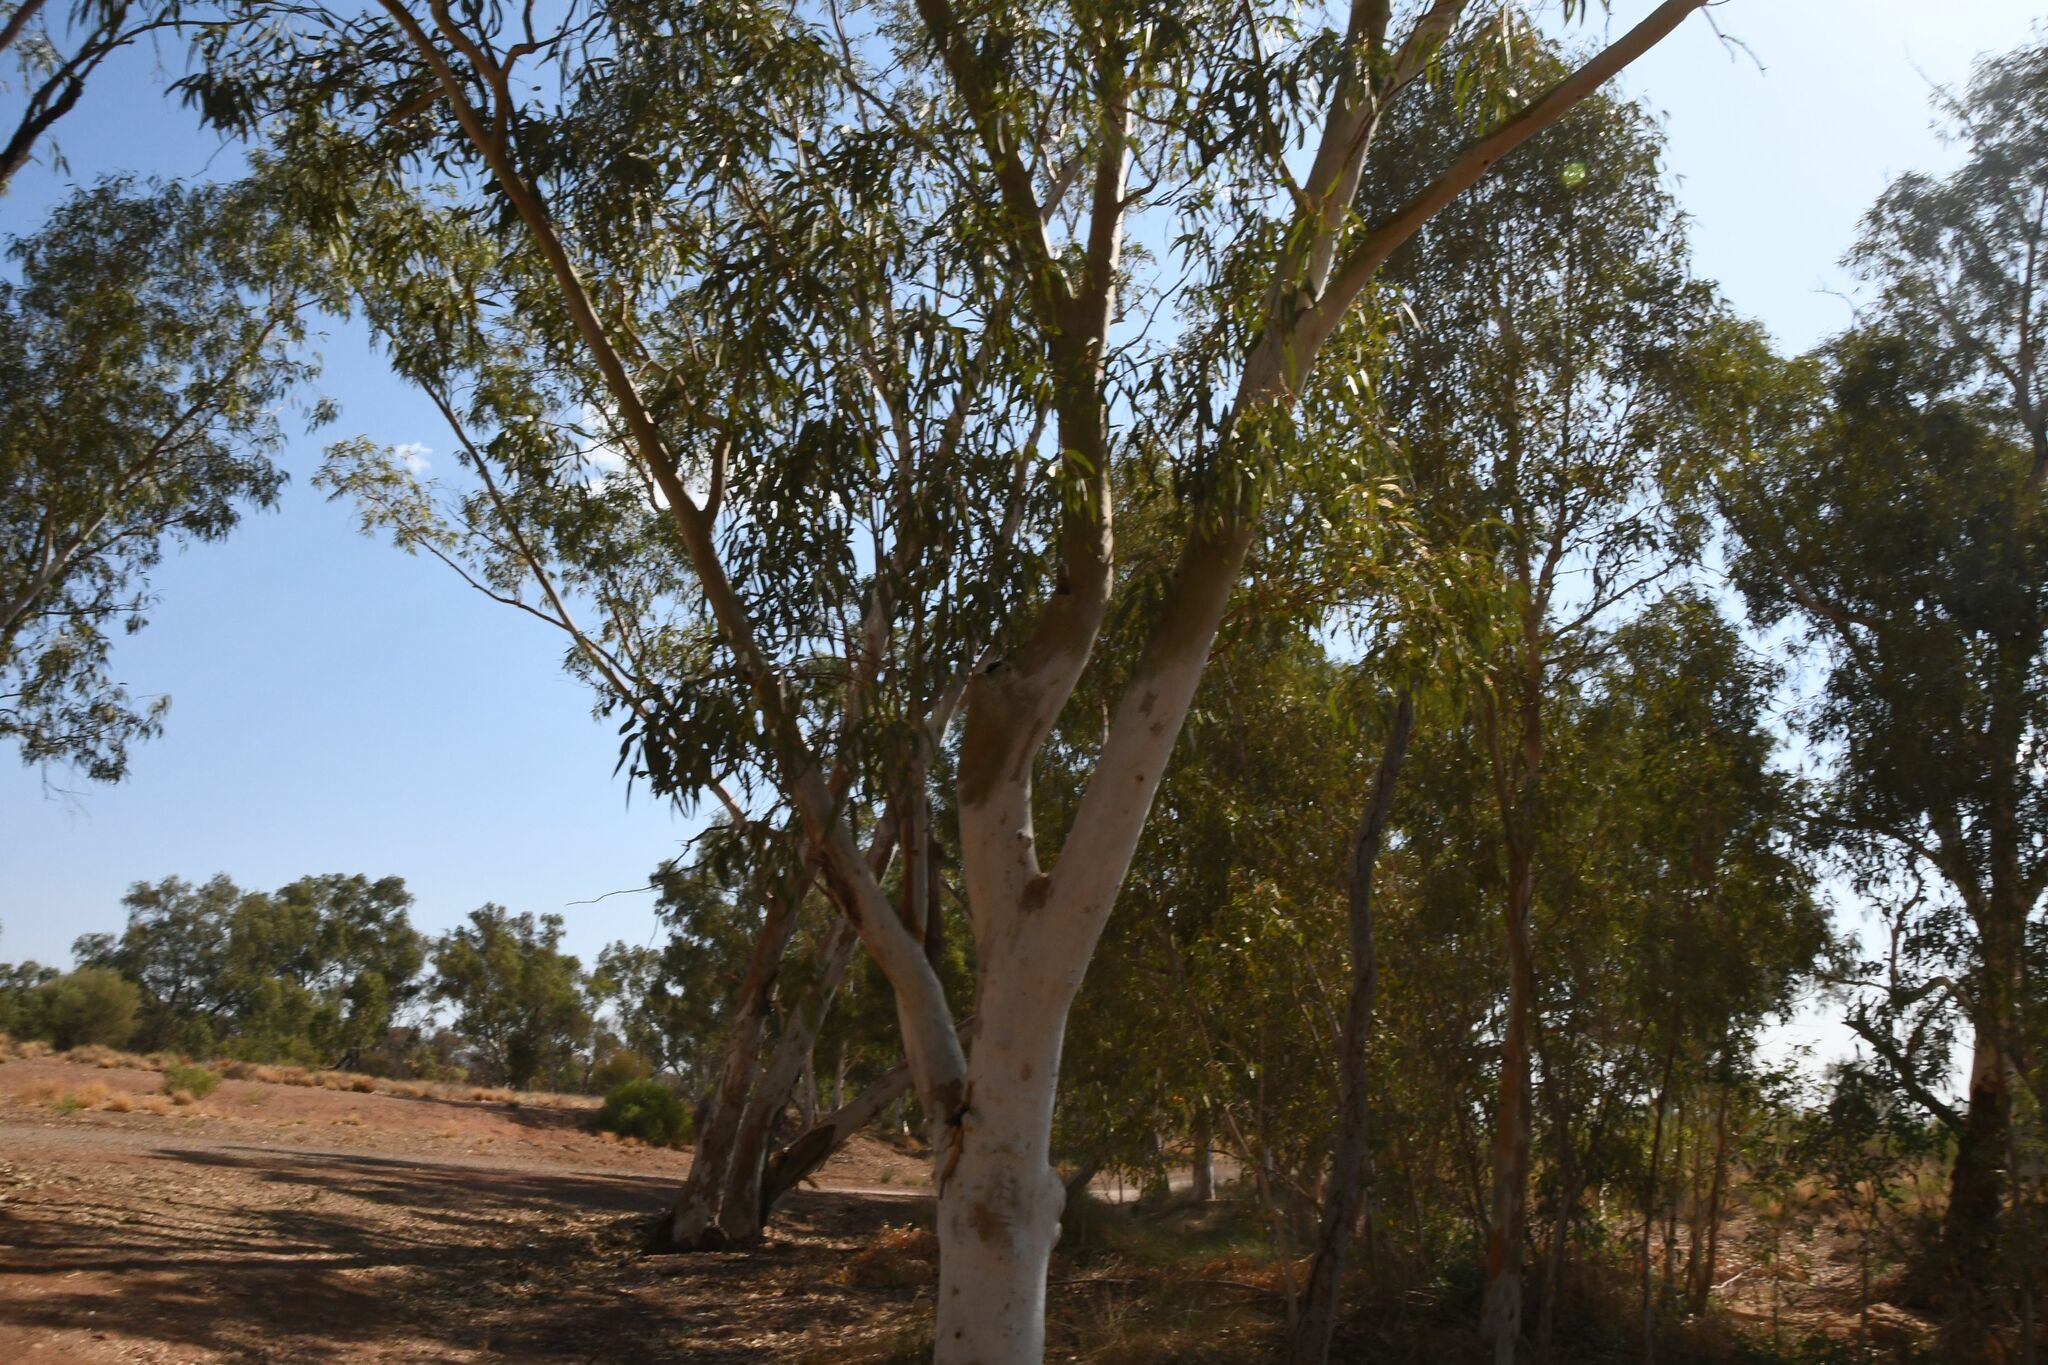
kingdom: Plantae
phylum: Tracheophyta
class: Magnoliopsida
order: Myrtales
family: Myrtaceae
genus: Eucalyptus
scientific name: Eucalyptus camaldulensis
